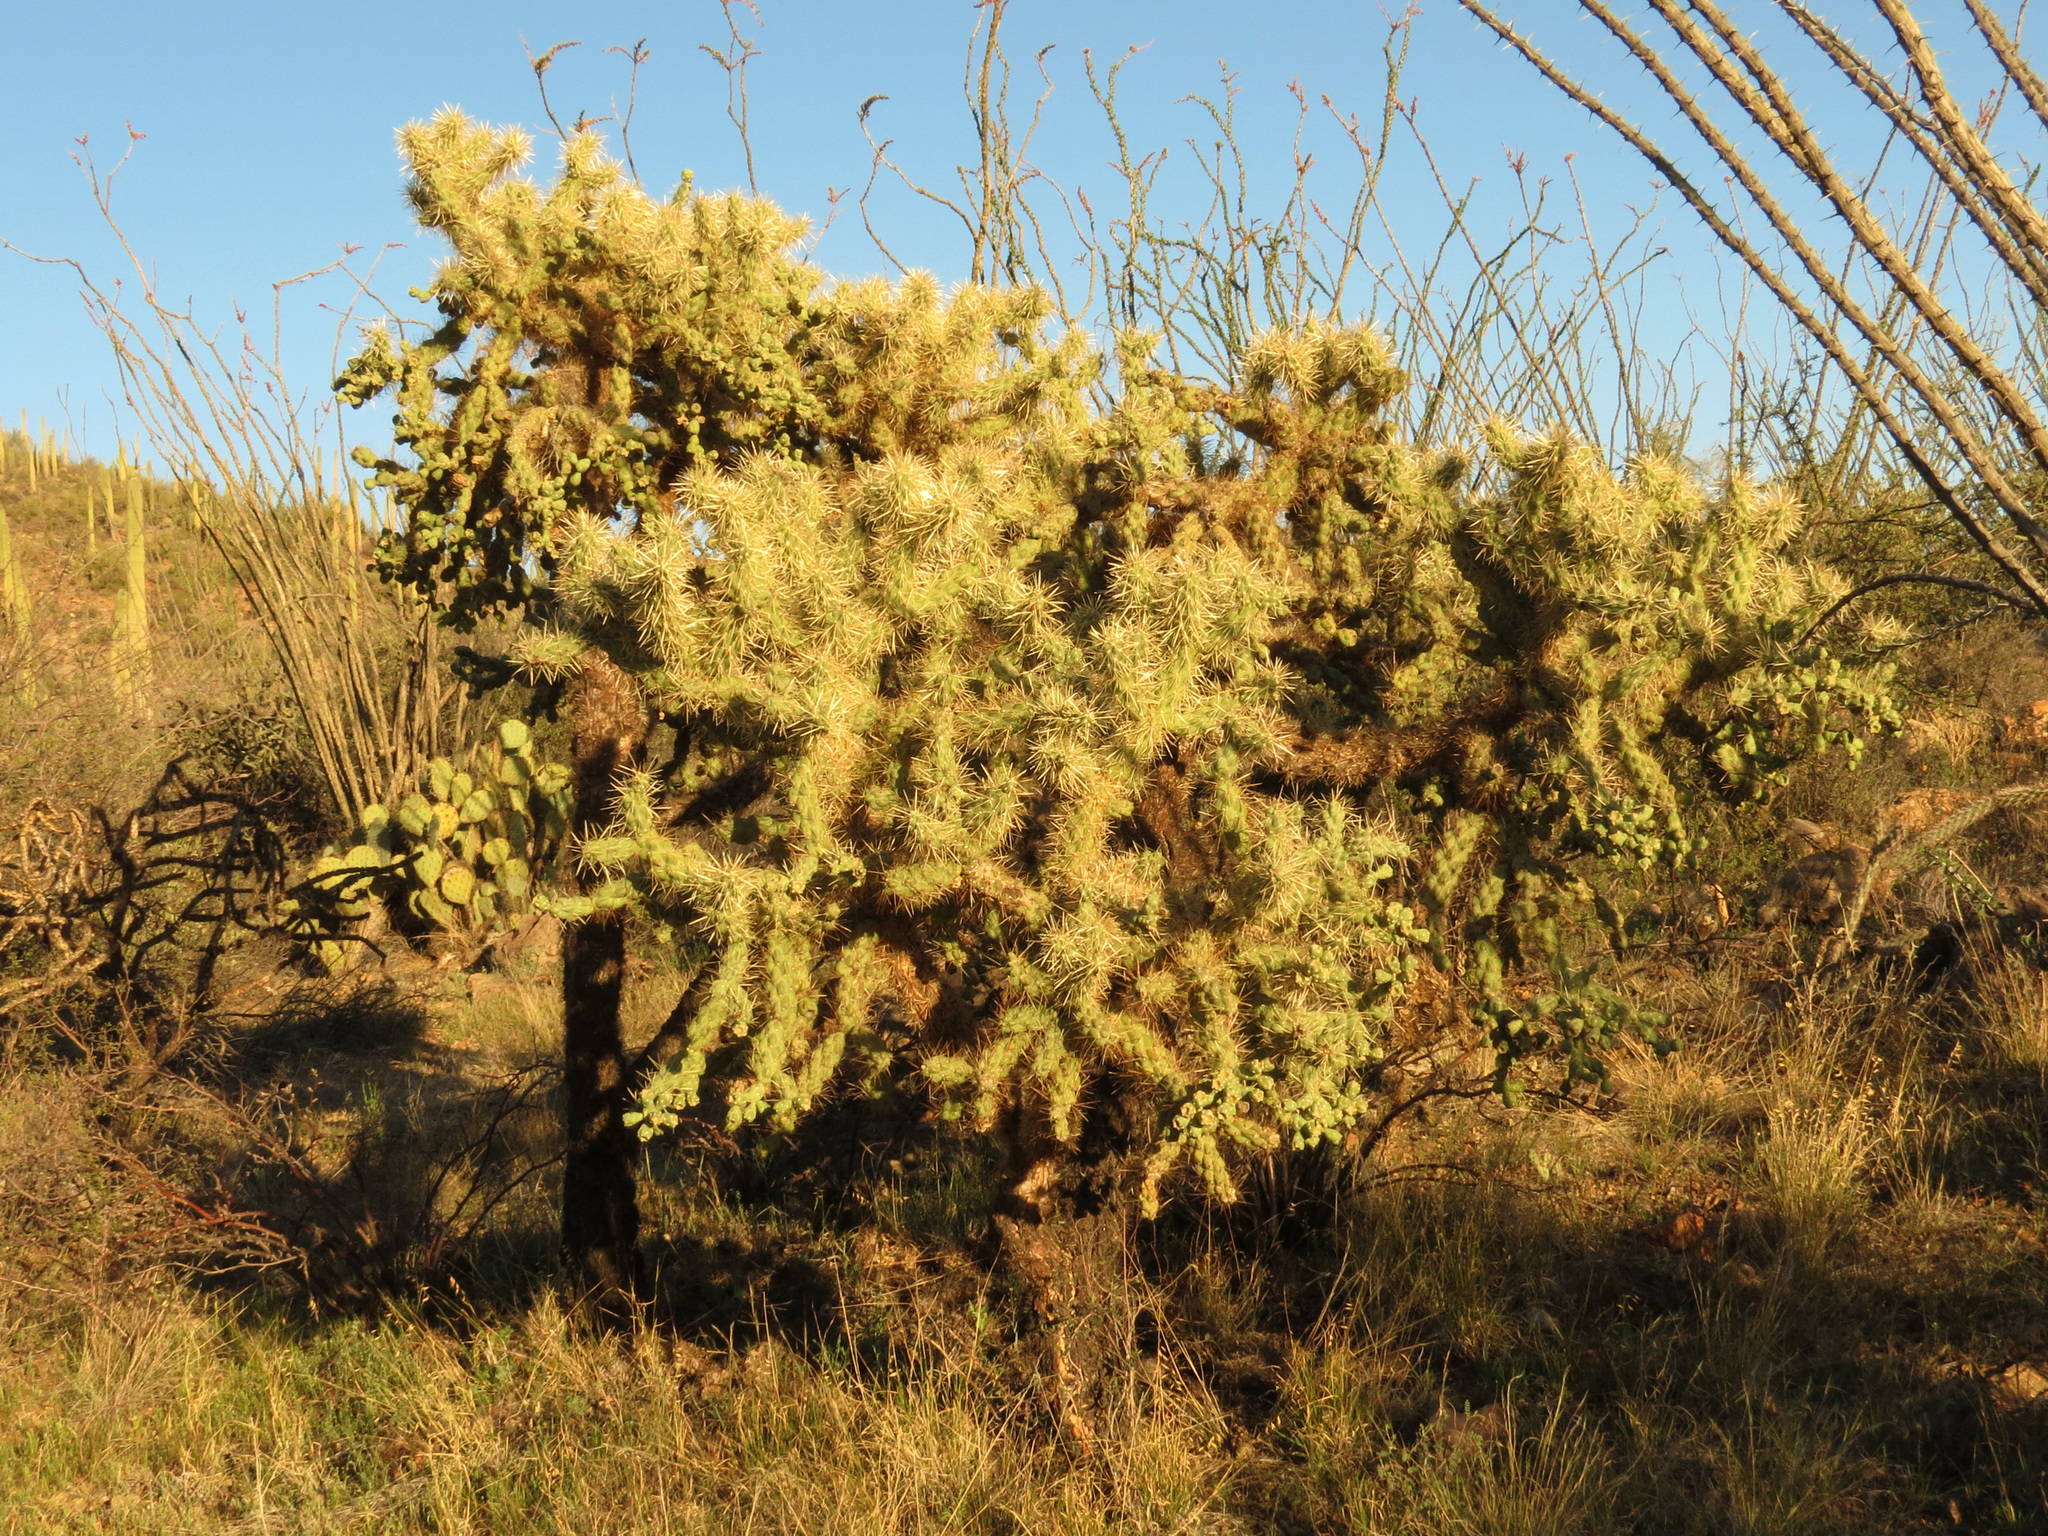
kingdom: Plantae
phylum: Tracheophyta
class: Magnoliopsida
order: Caryophyllales
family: Cactaceae
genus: Cylindropuntia
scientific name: Cylindropuntia fulgida
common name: Jumping cholla
